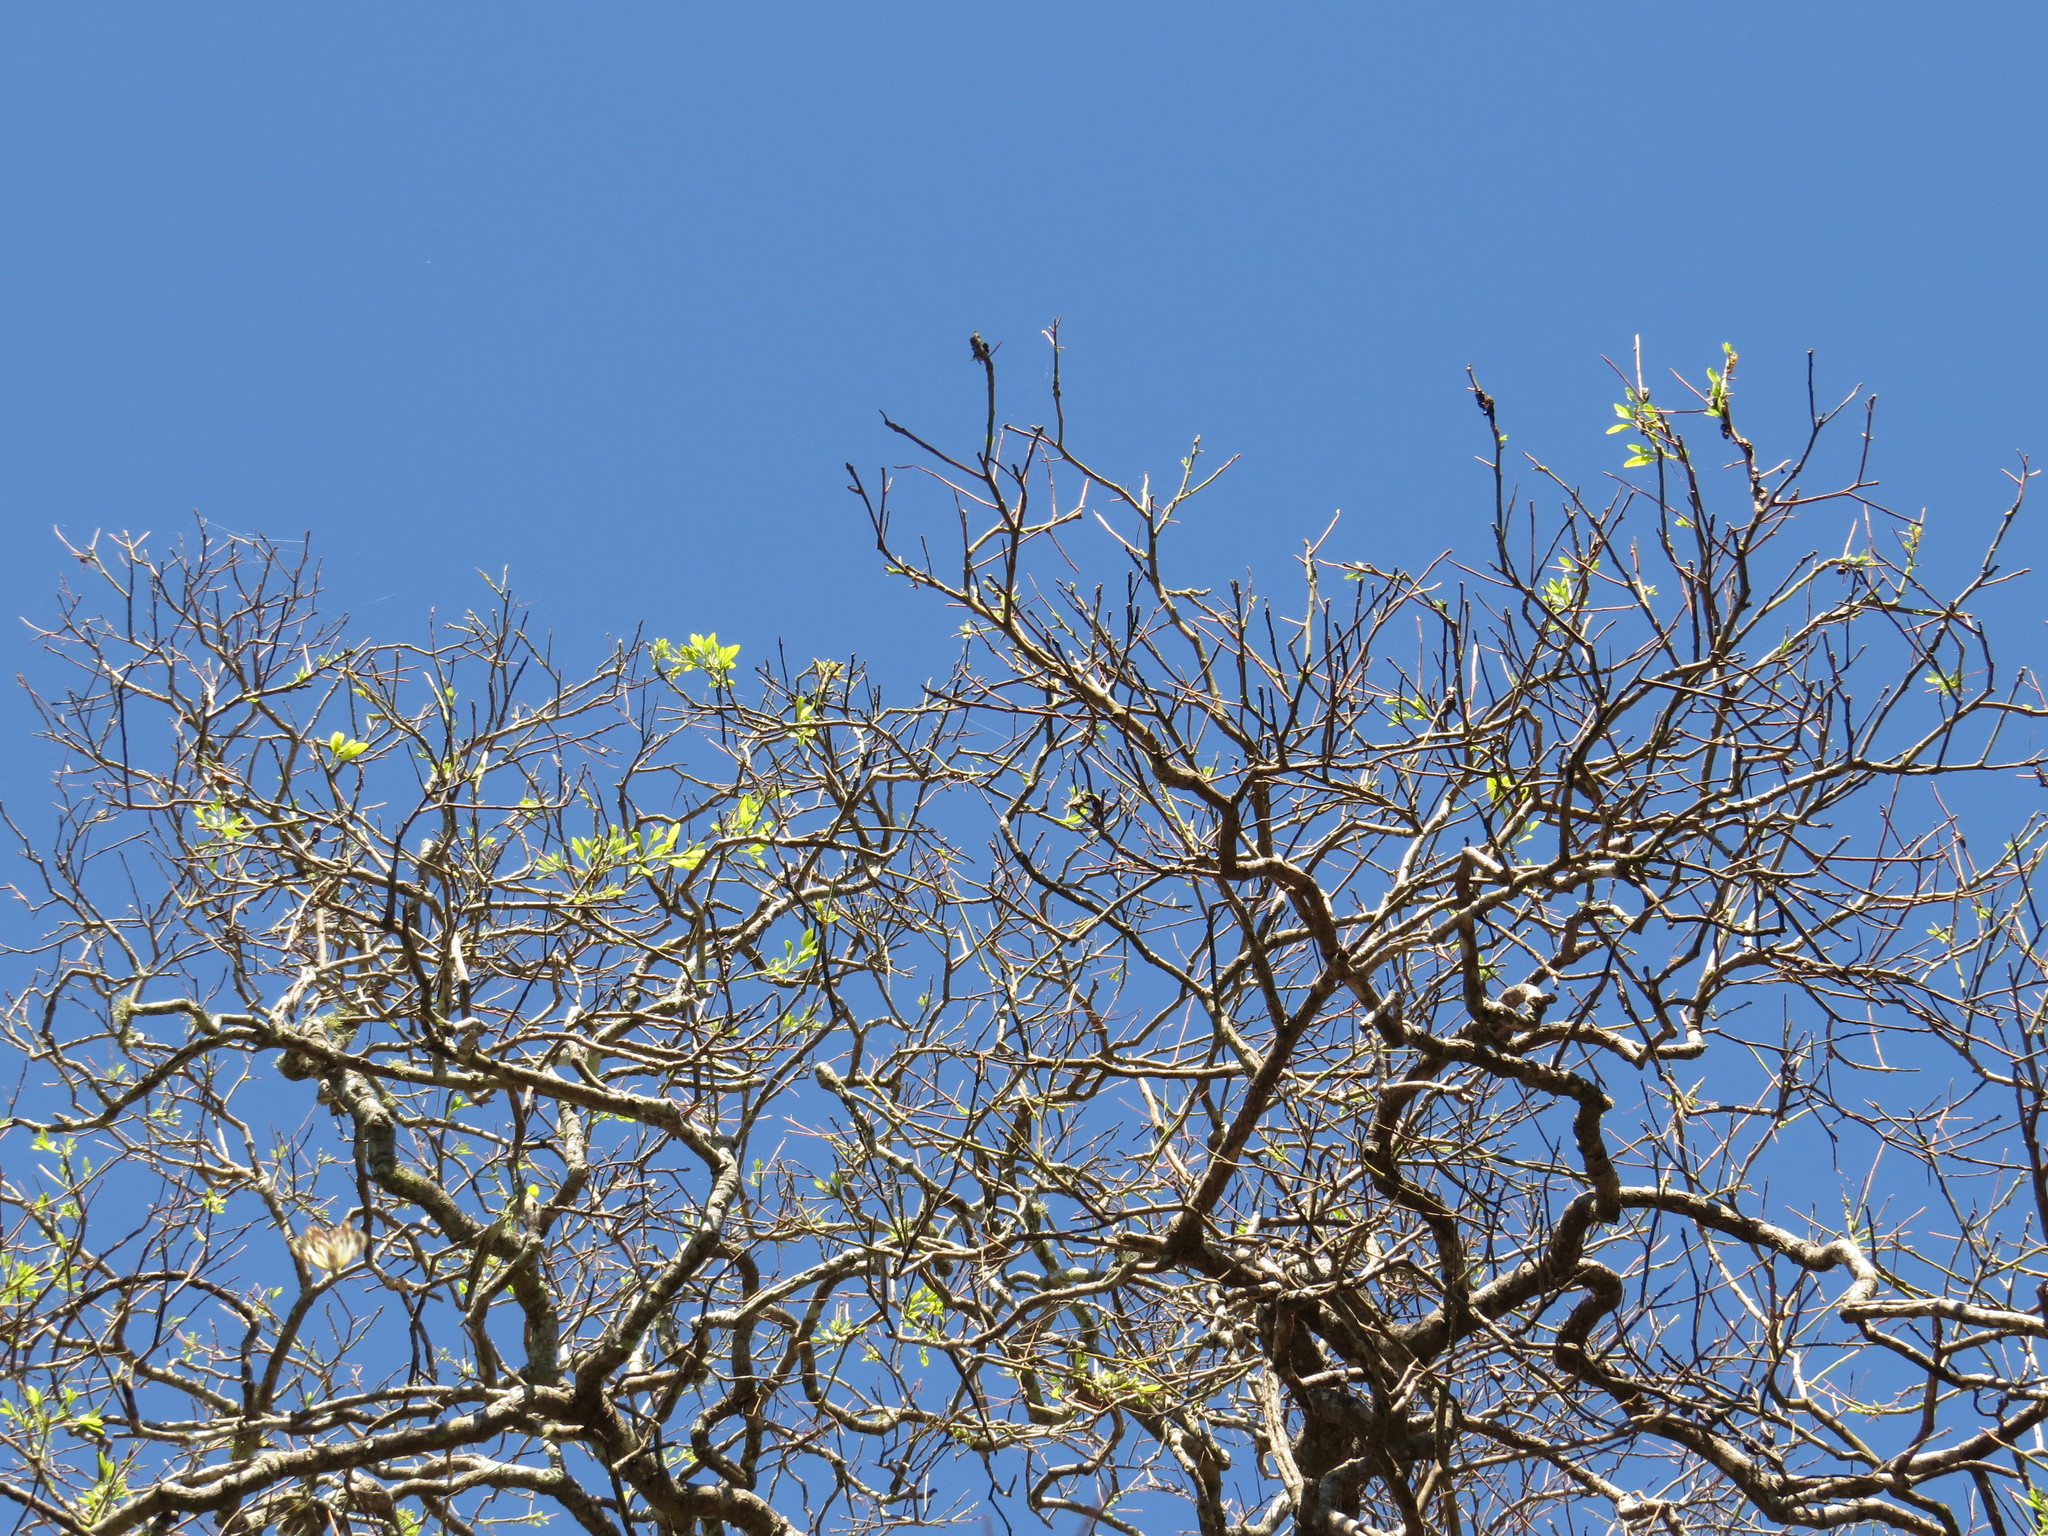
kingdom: Animalia
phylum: Arthropoda
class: Insecta
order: Lepidoptera
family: Pieridae
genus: Cepora
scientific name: Cepora perimale
